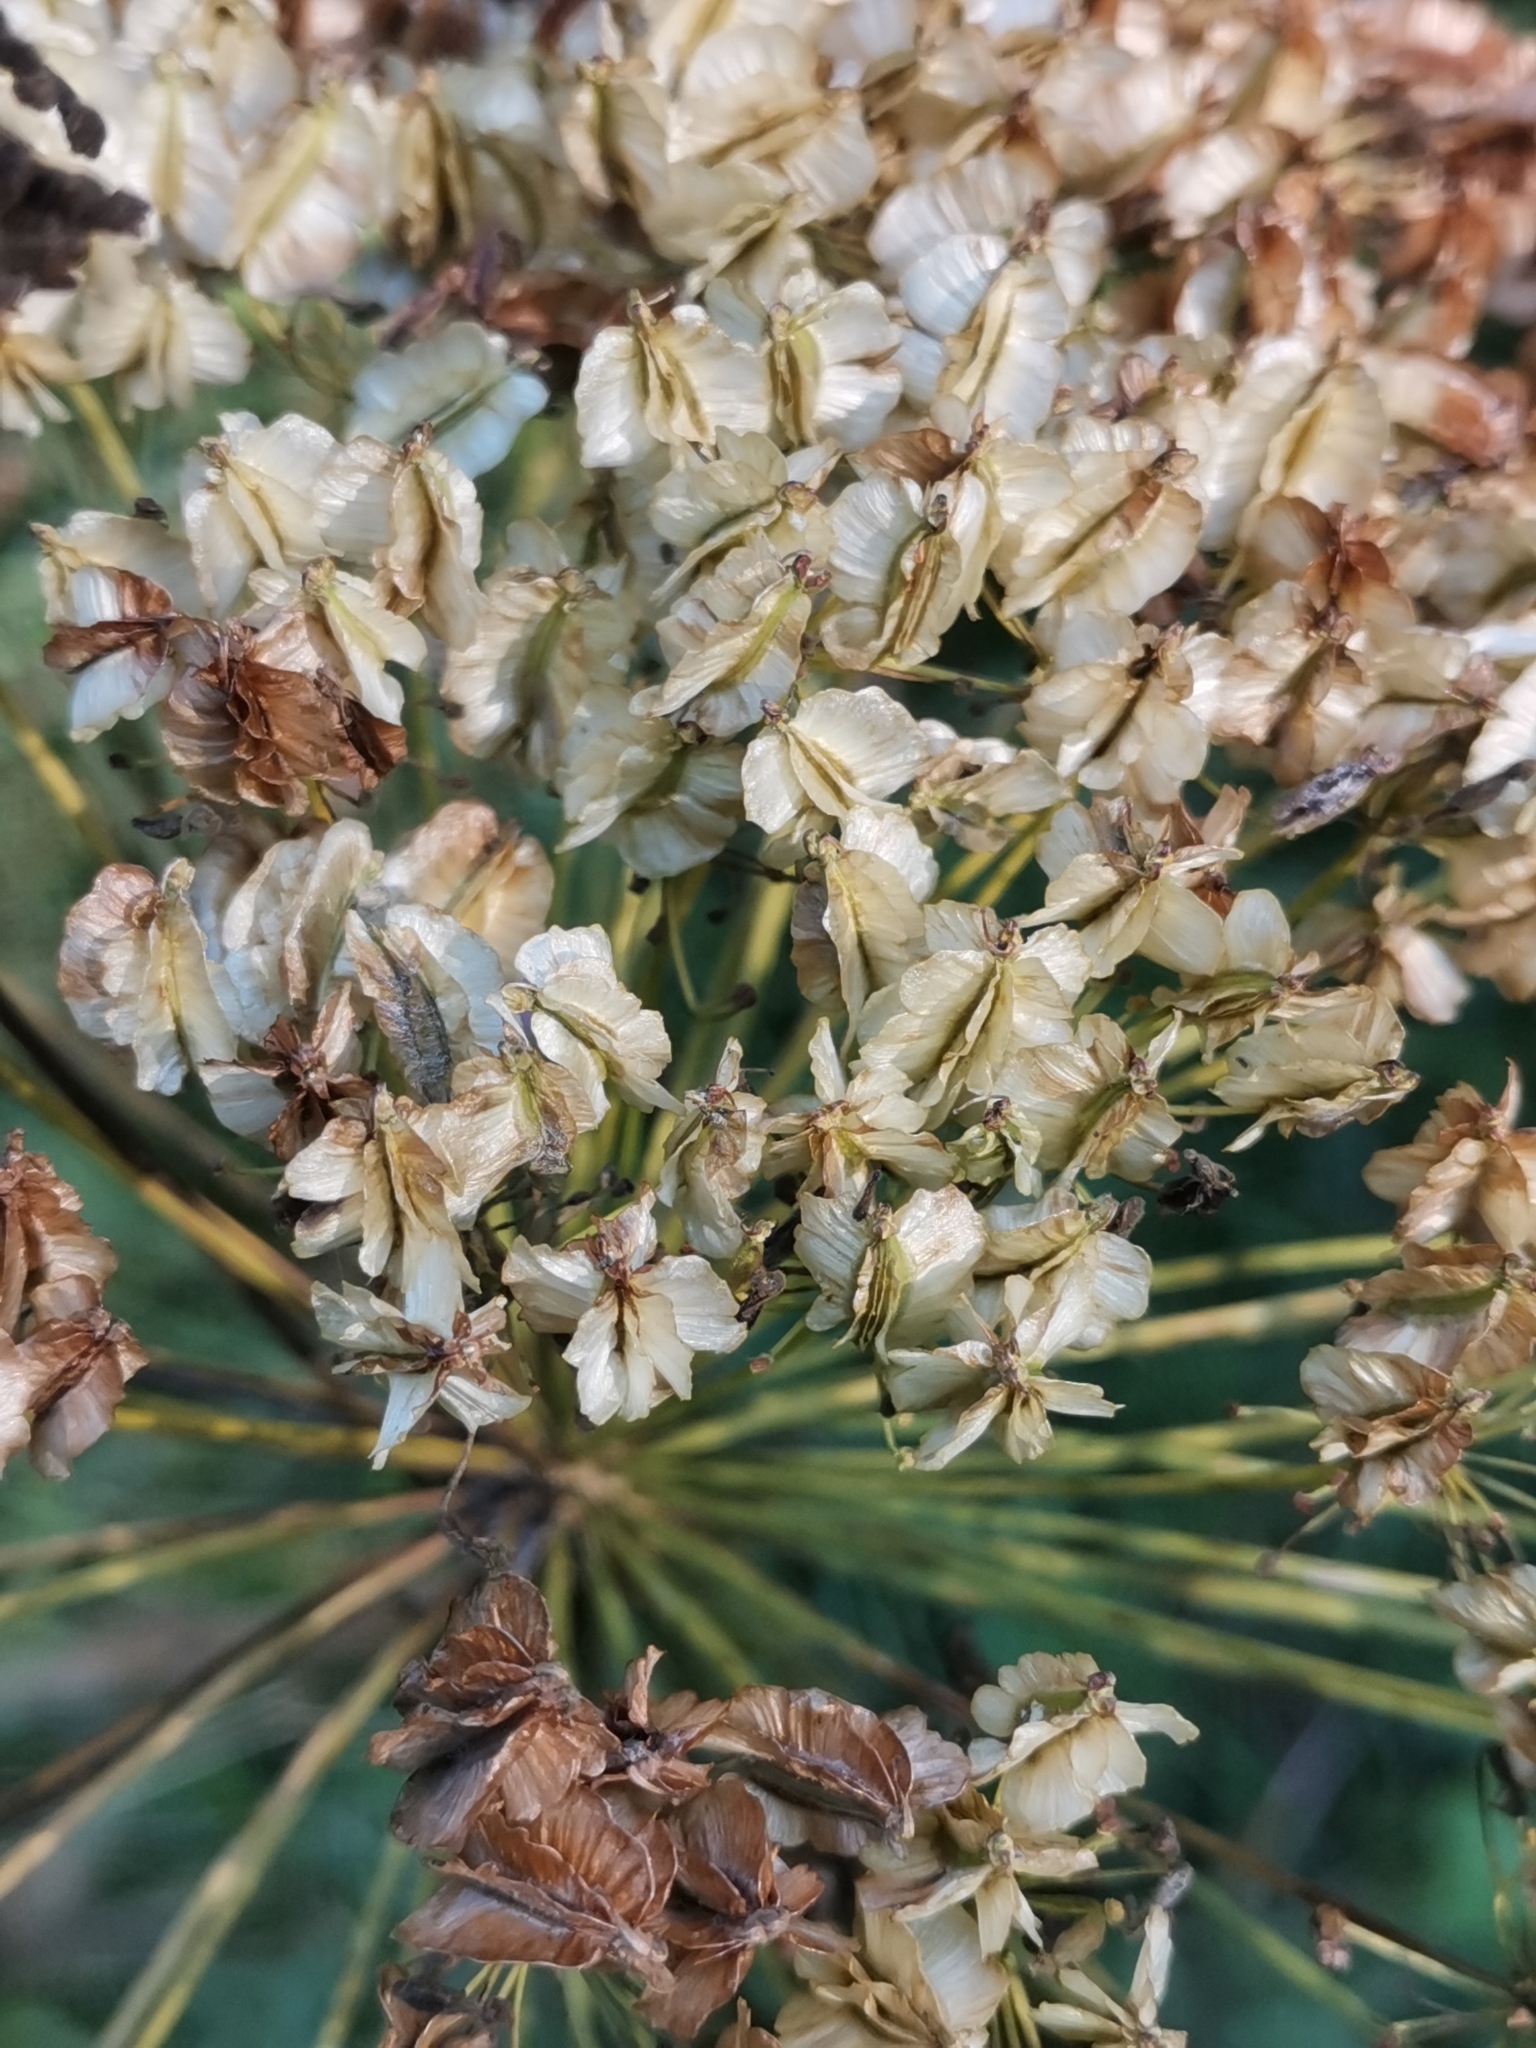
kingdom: Plantae
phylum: Tracheophyta
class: Magnoliopsida
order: Apiales
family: Apiaceae
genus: Laserpitium
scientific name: Laserpitium latifolium
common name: Broadleaf sermountain
